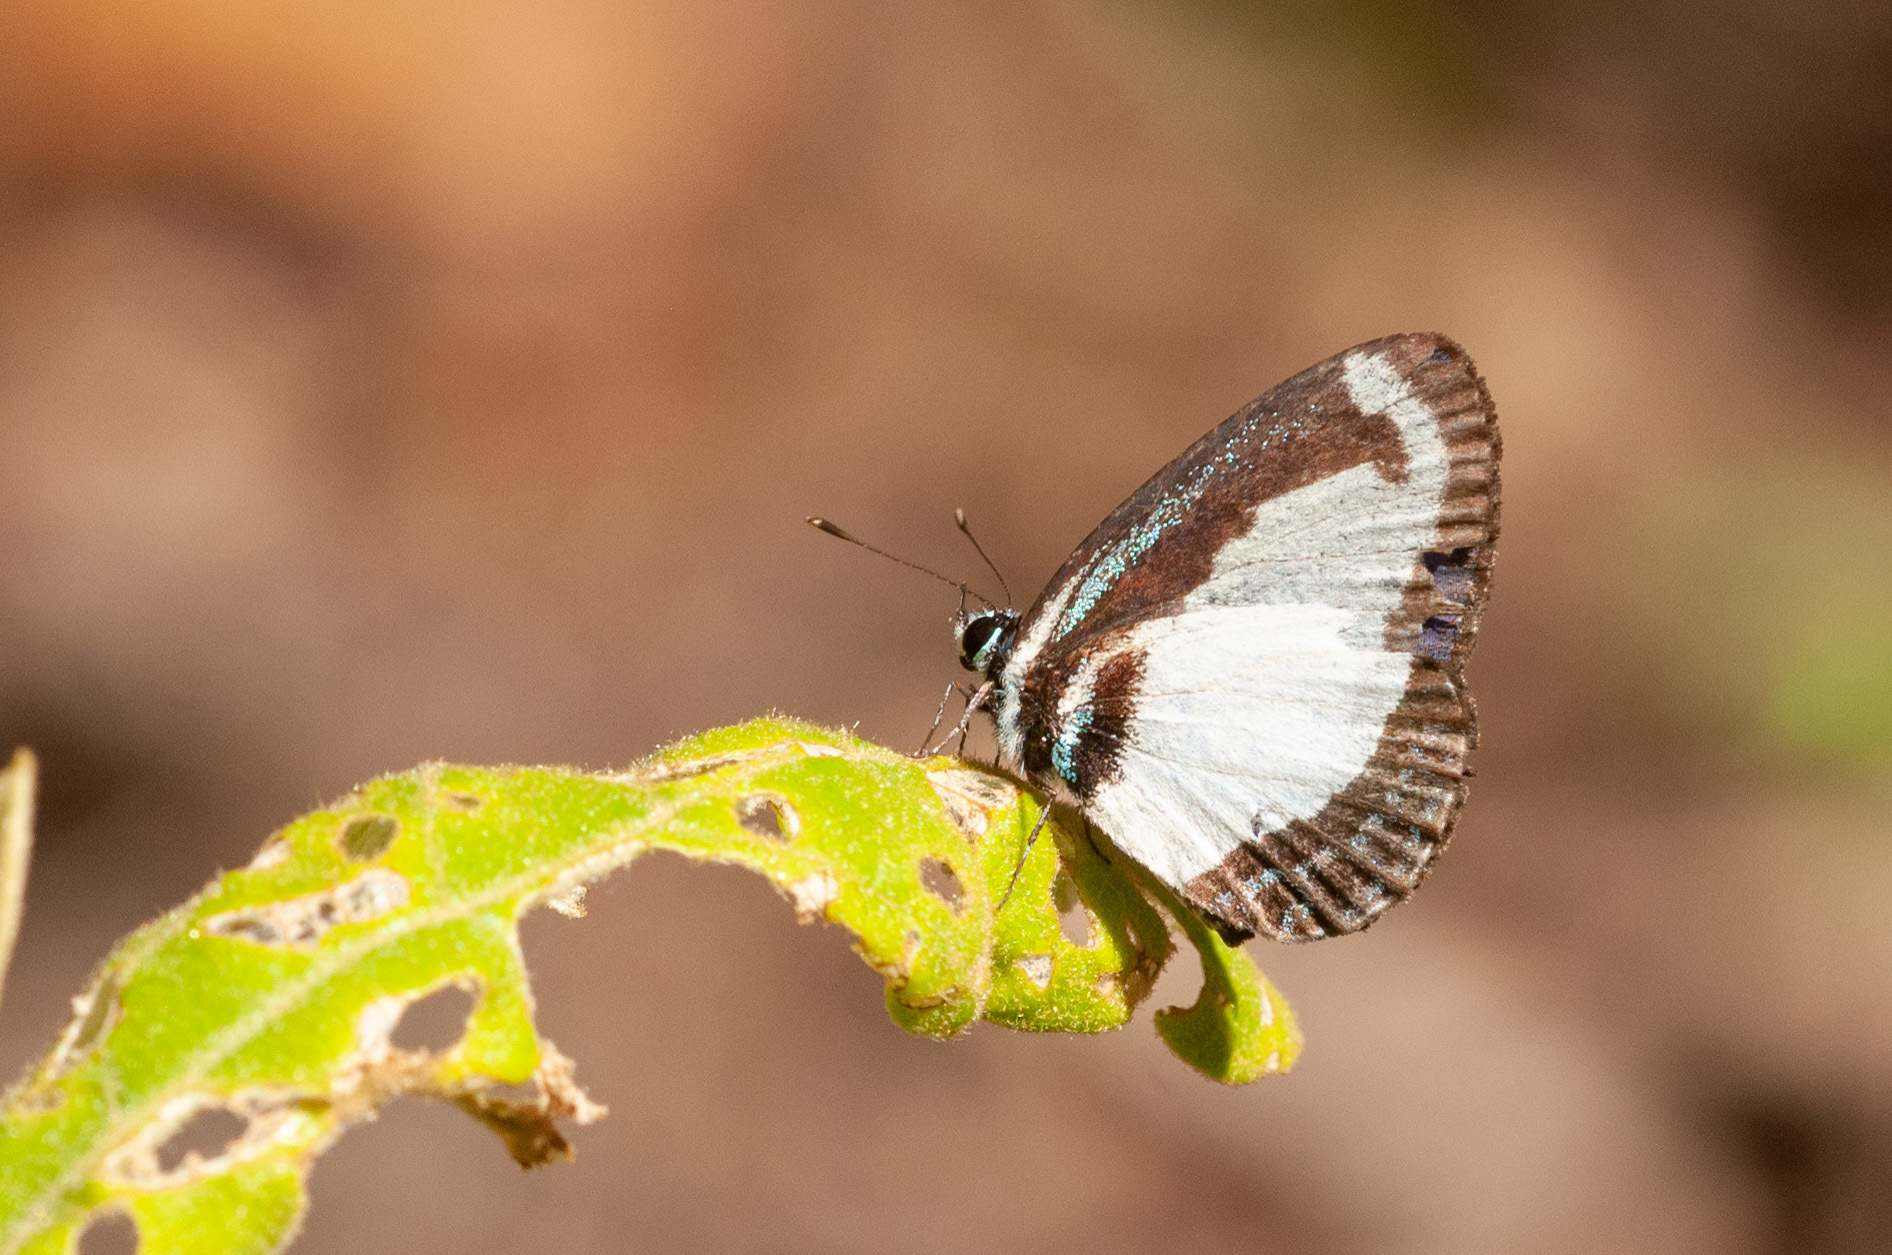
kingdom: Animalia
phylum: Arthropoda
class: Insecta
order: Lepidoptera
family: Lycaenidae
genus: Psychonotis
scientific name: Psychonotis caelius
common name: Small green banded blue
